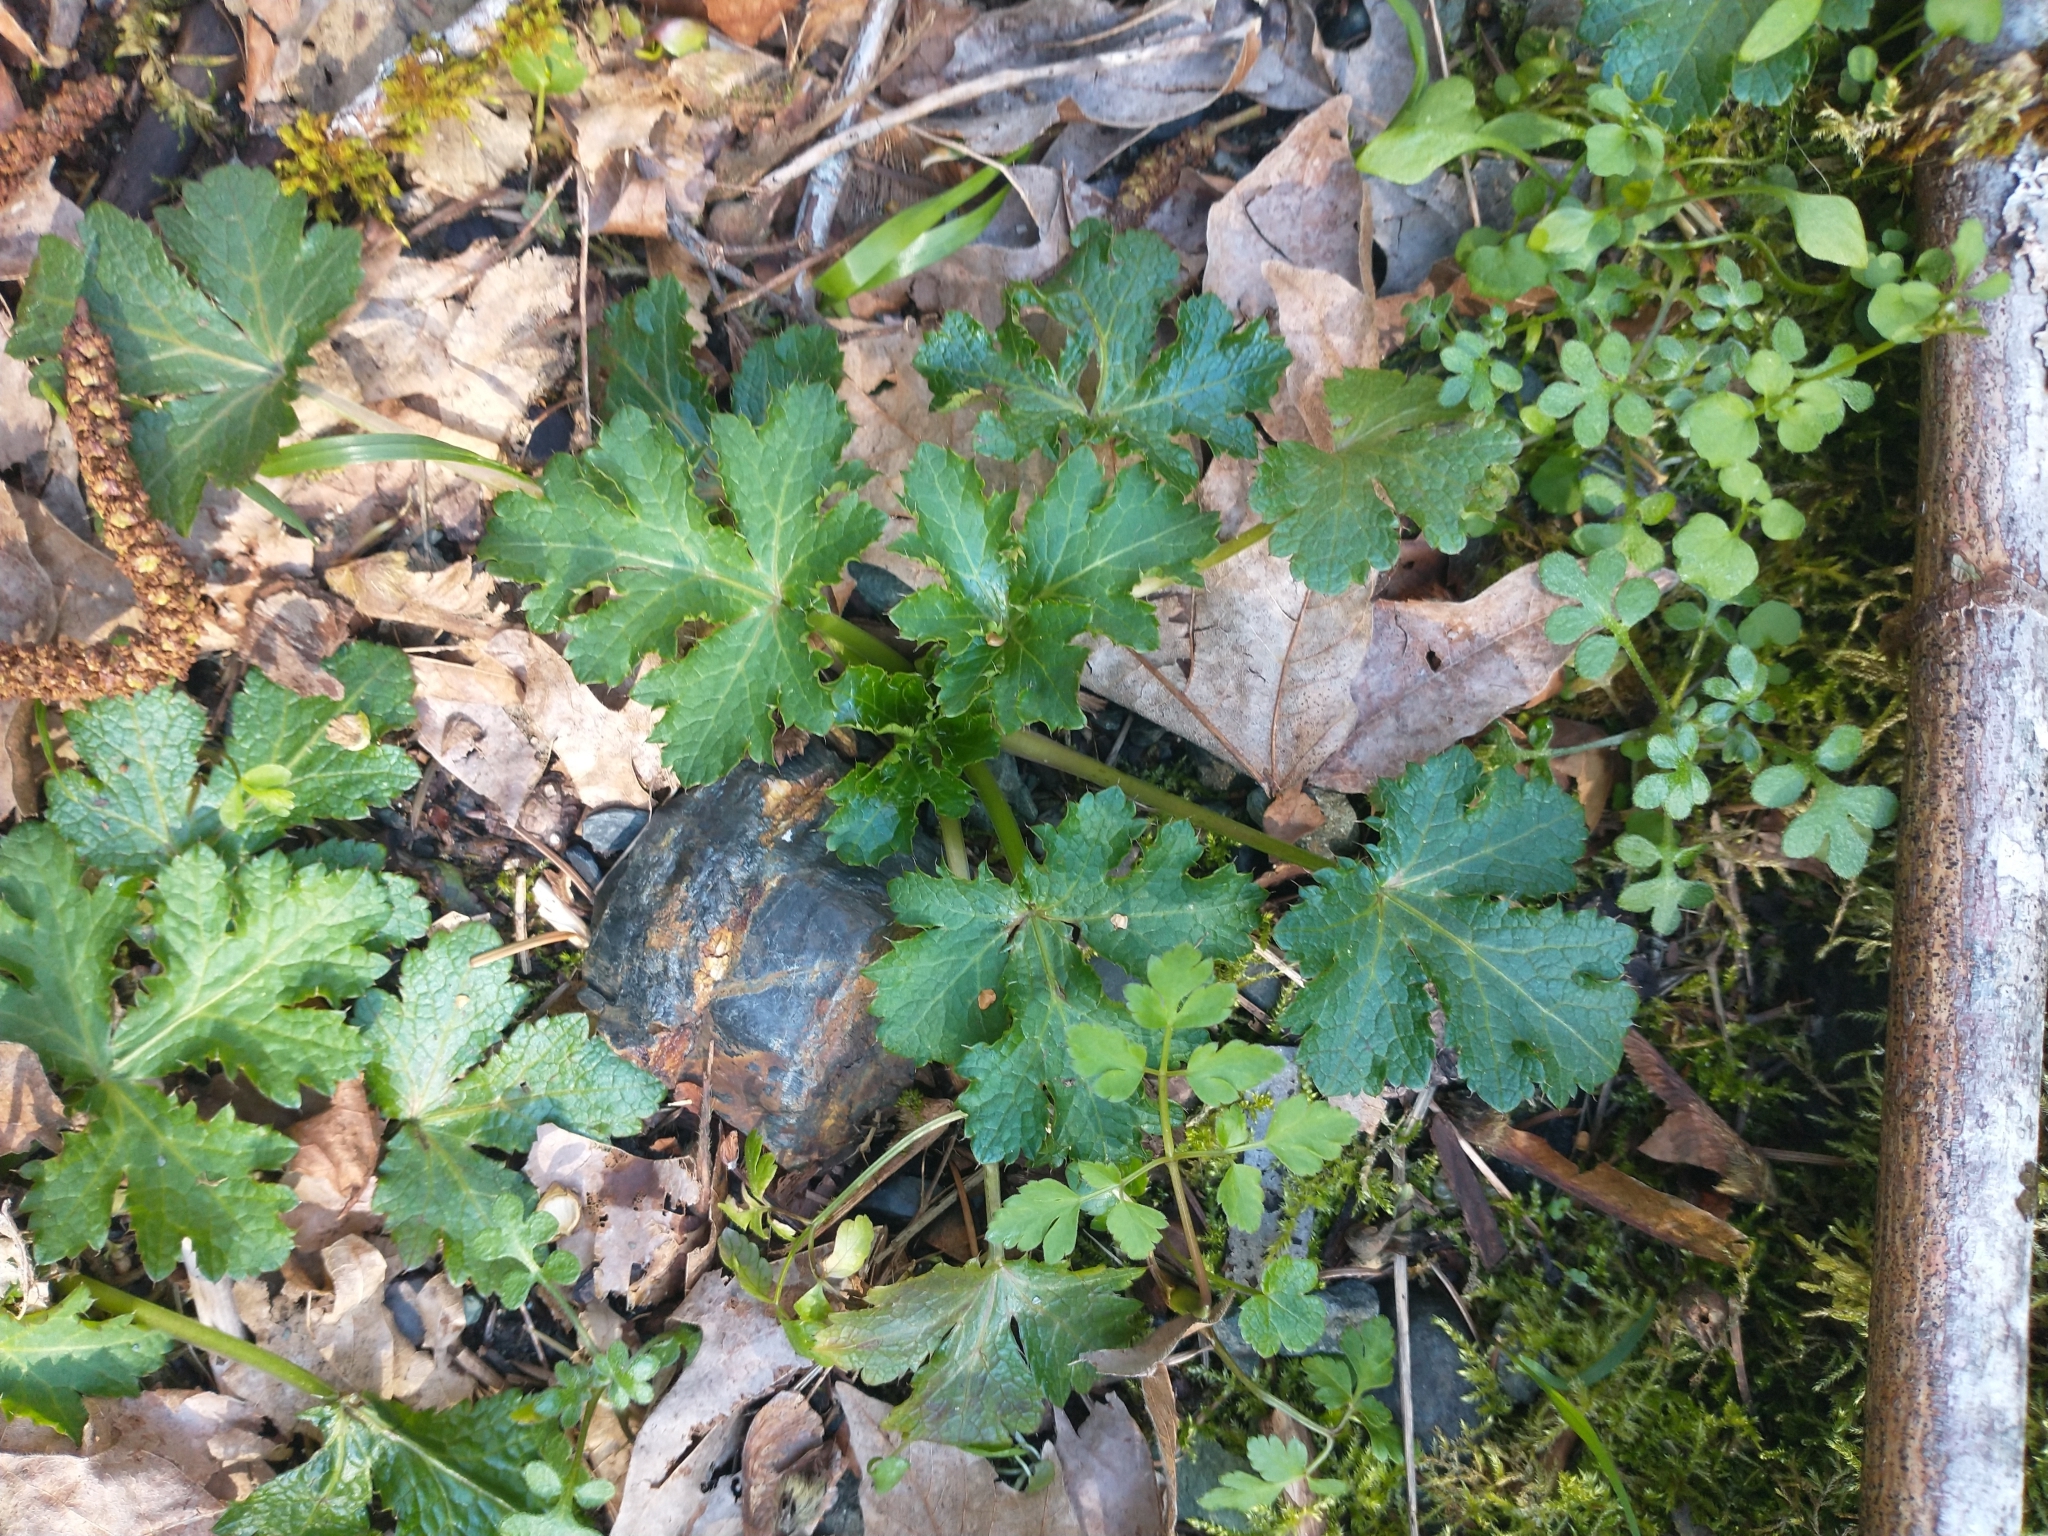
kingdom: Plantae
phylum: Tracheophyta
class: Magnoliopsida
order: Apiales
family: Apiaceae
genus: Sanicula
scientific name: Sanicula crassicaulis
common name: Western snakeroot
